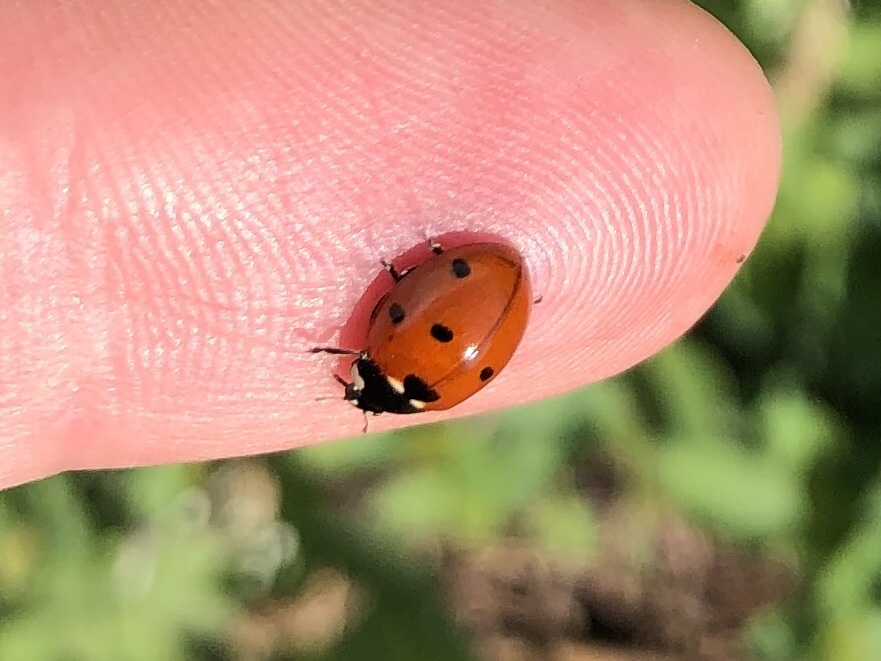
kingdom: Animalia
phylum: Arthropoda
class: Insecta
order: Coleoptera
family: Coccinellidae
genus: Coccinella
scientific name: Coccinella septempunctata
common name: Sevenspotted lady beetle
